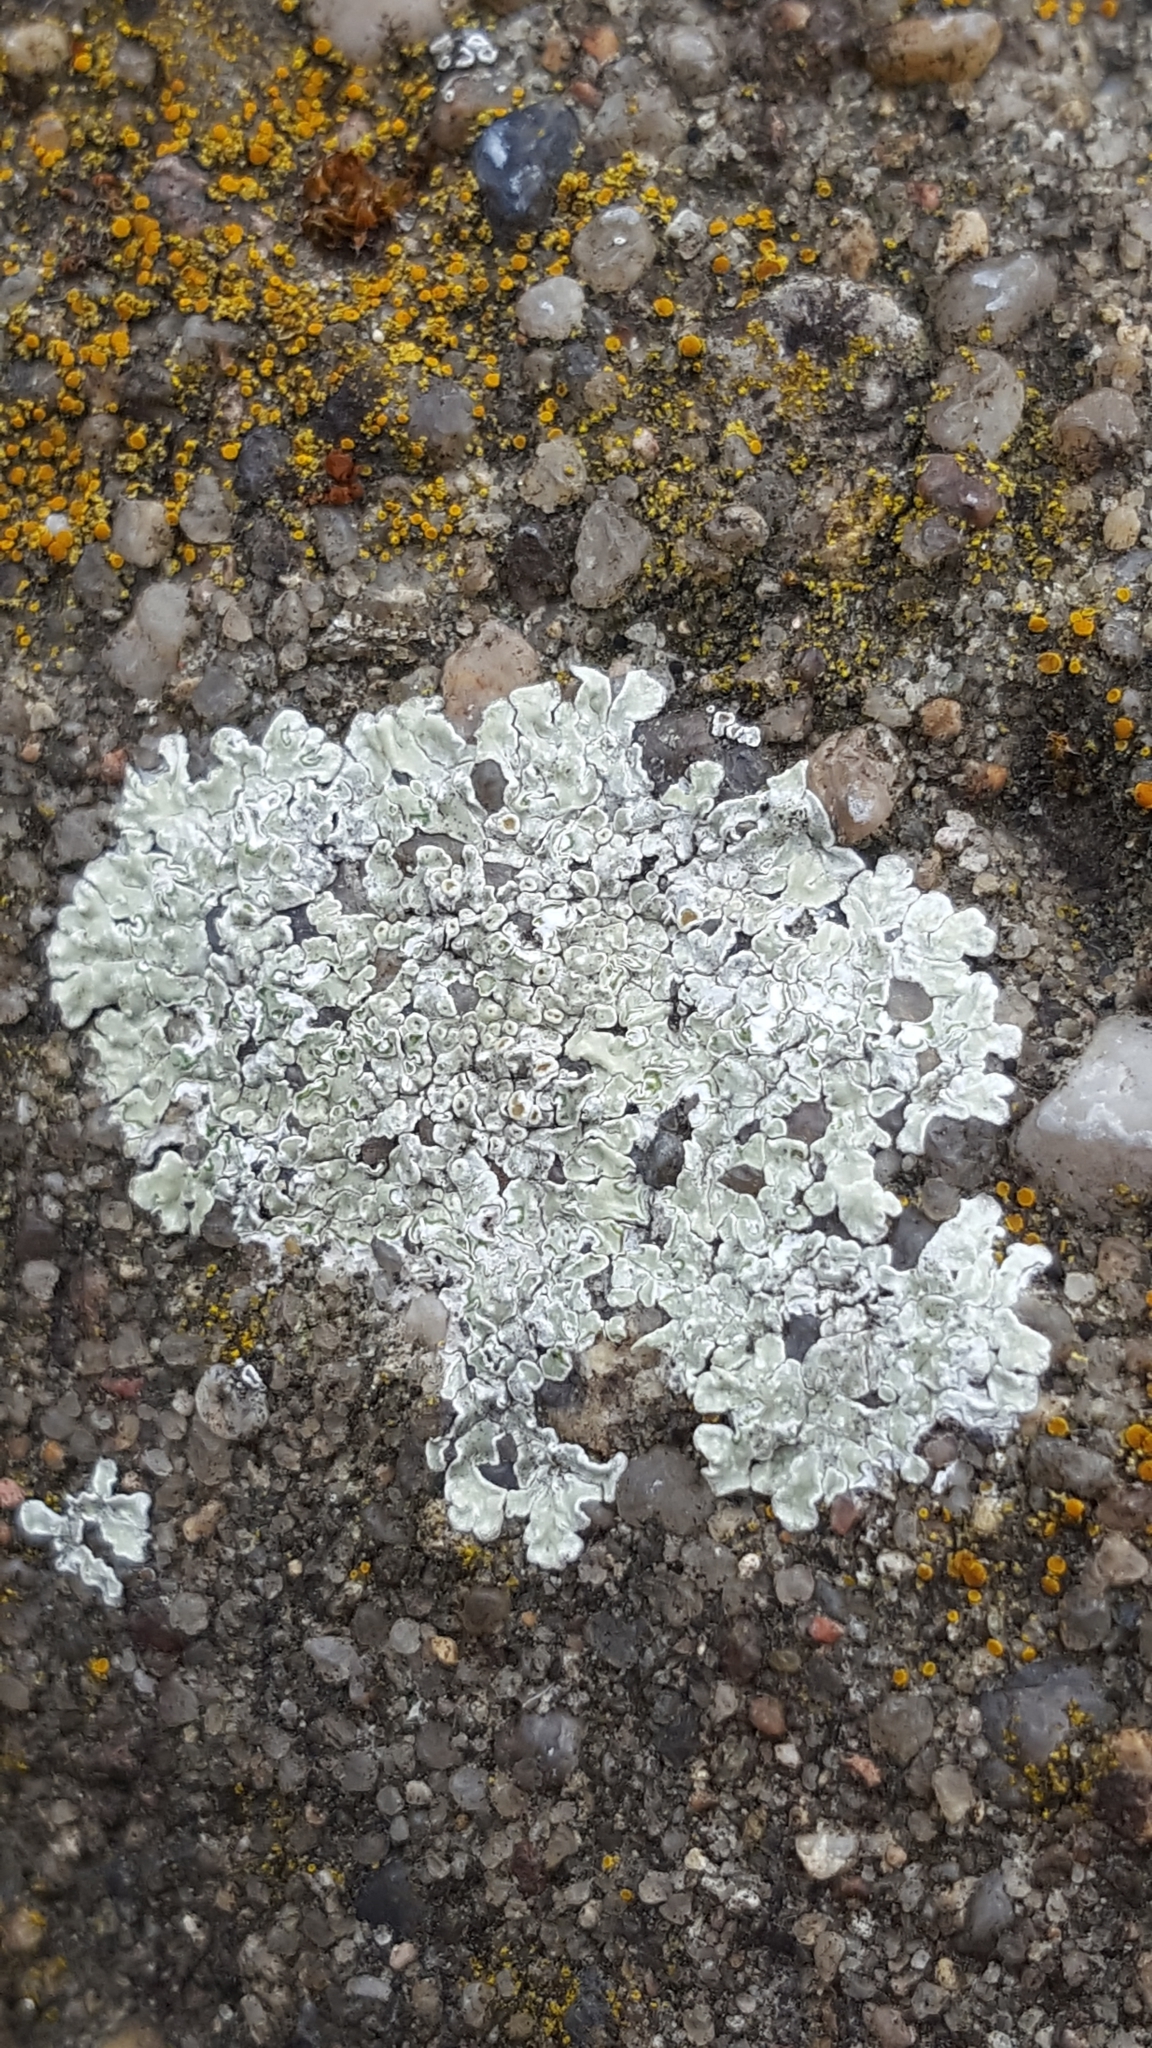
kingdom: Fungi
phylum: Ascomycota
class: Lecanoromycetes
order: Lecanorales
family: Lecanoraceae
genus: Protoparmeliopsis
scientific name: Protoparmeliopsis muralis
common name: Stonewall rim lichen
